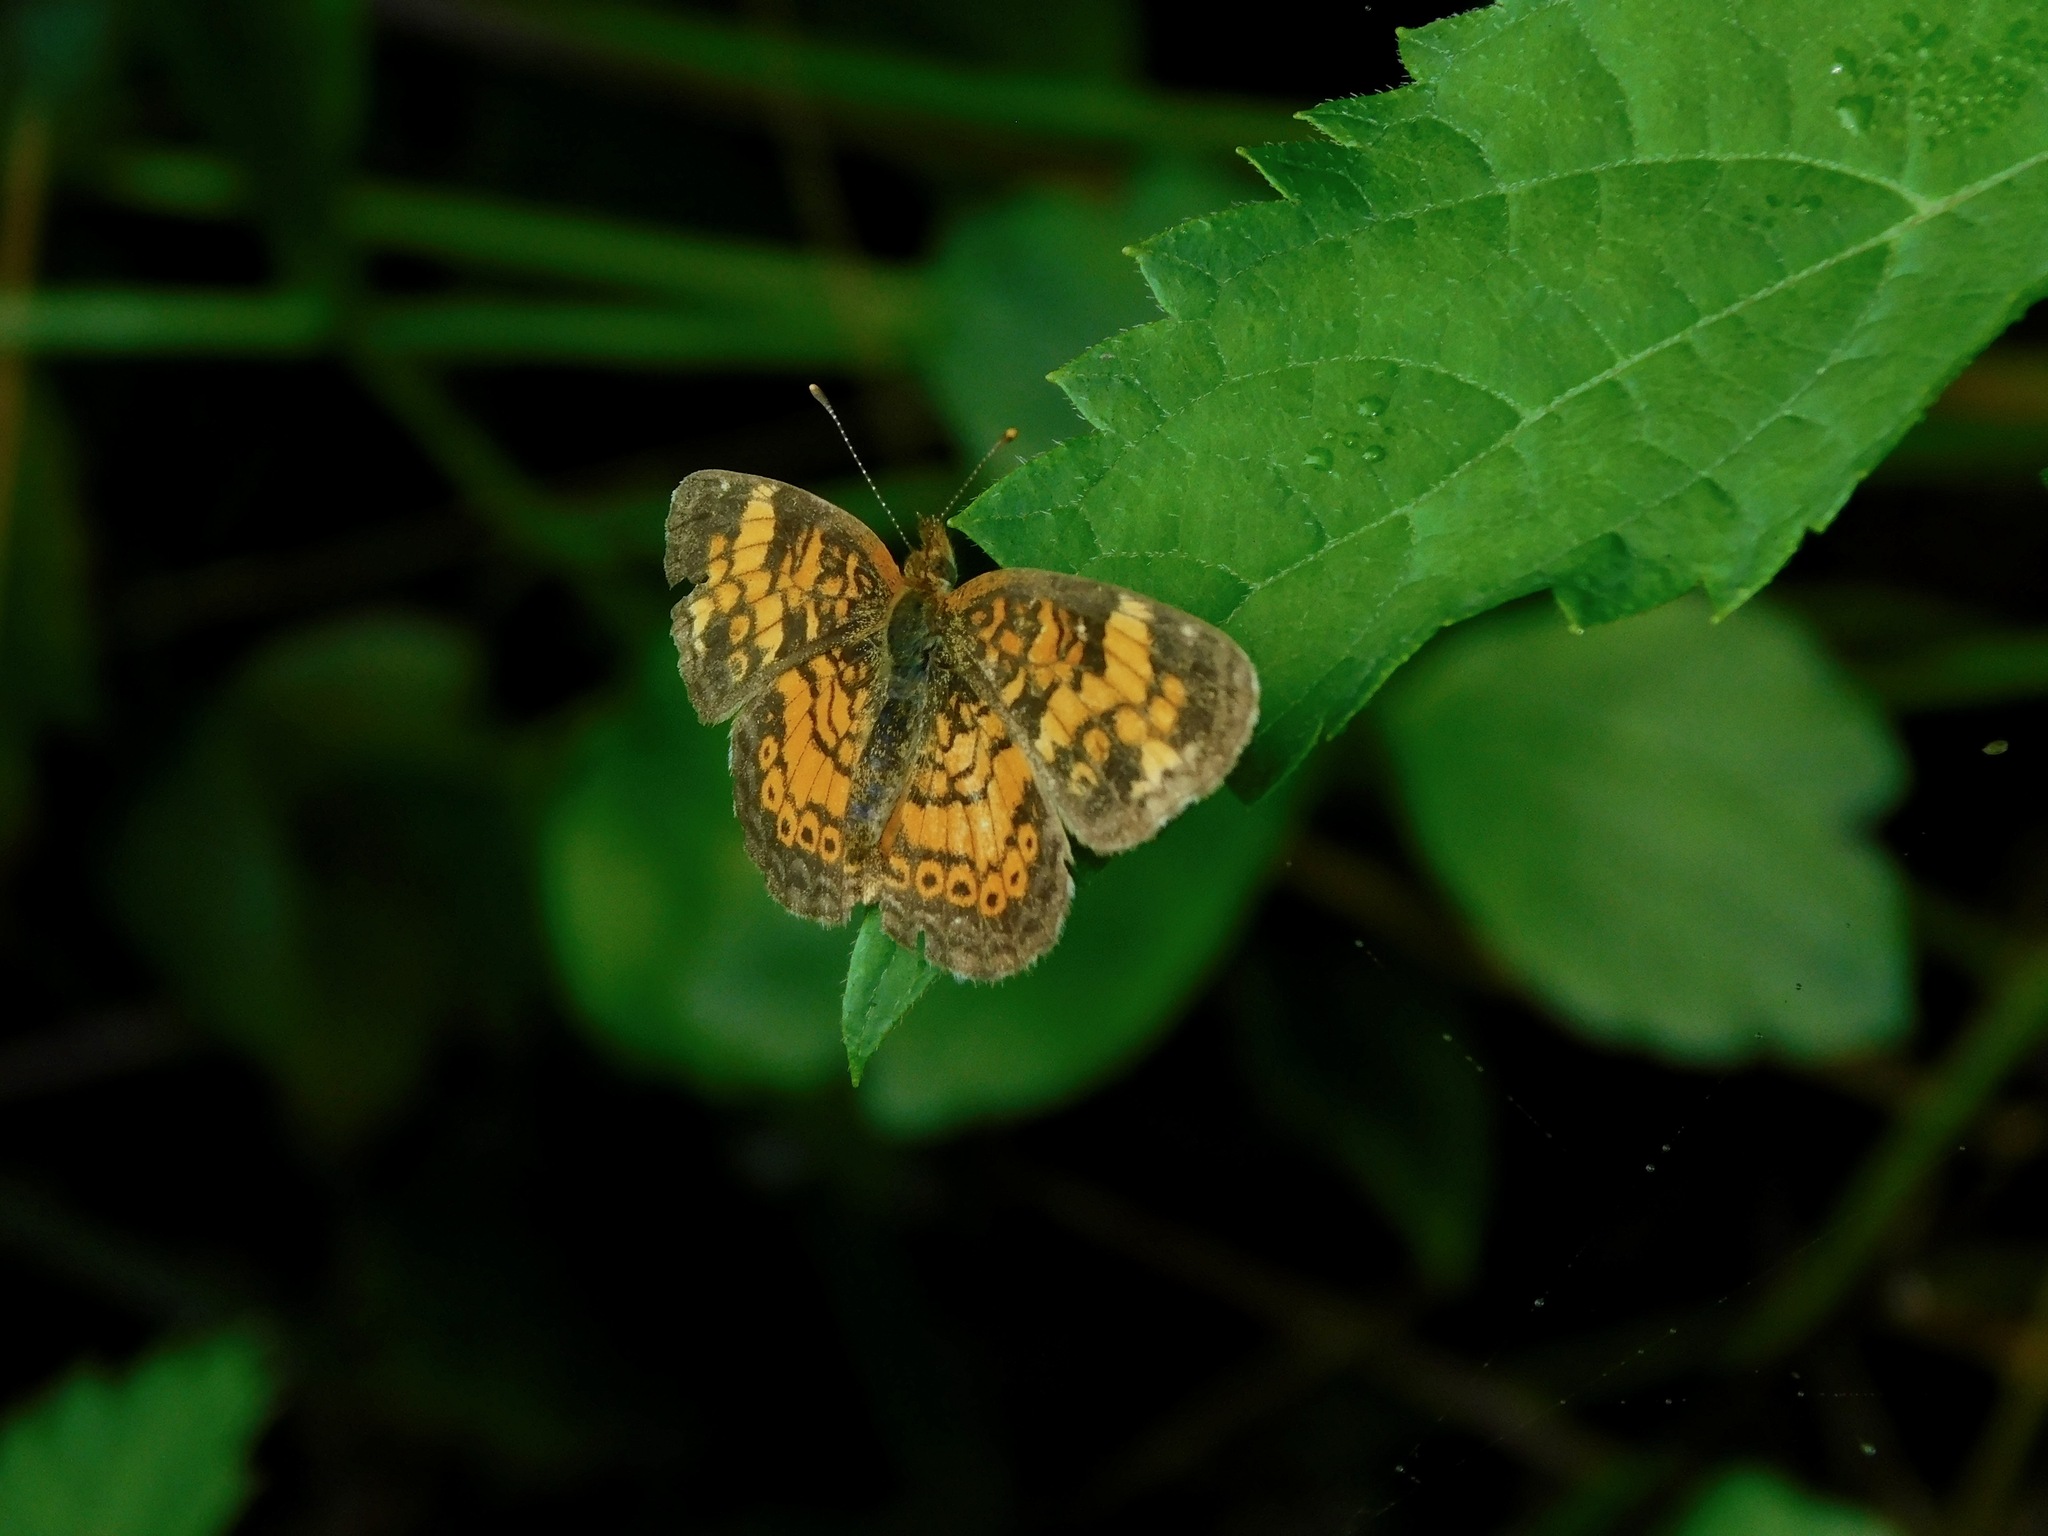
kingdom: Animalia
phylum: Arthropoda
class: Insecta
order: Lepidoptera
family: Nymphalidae
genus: Phyciodes
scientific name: Phyciodes tharos
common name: Pearl crescent
